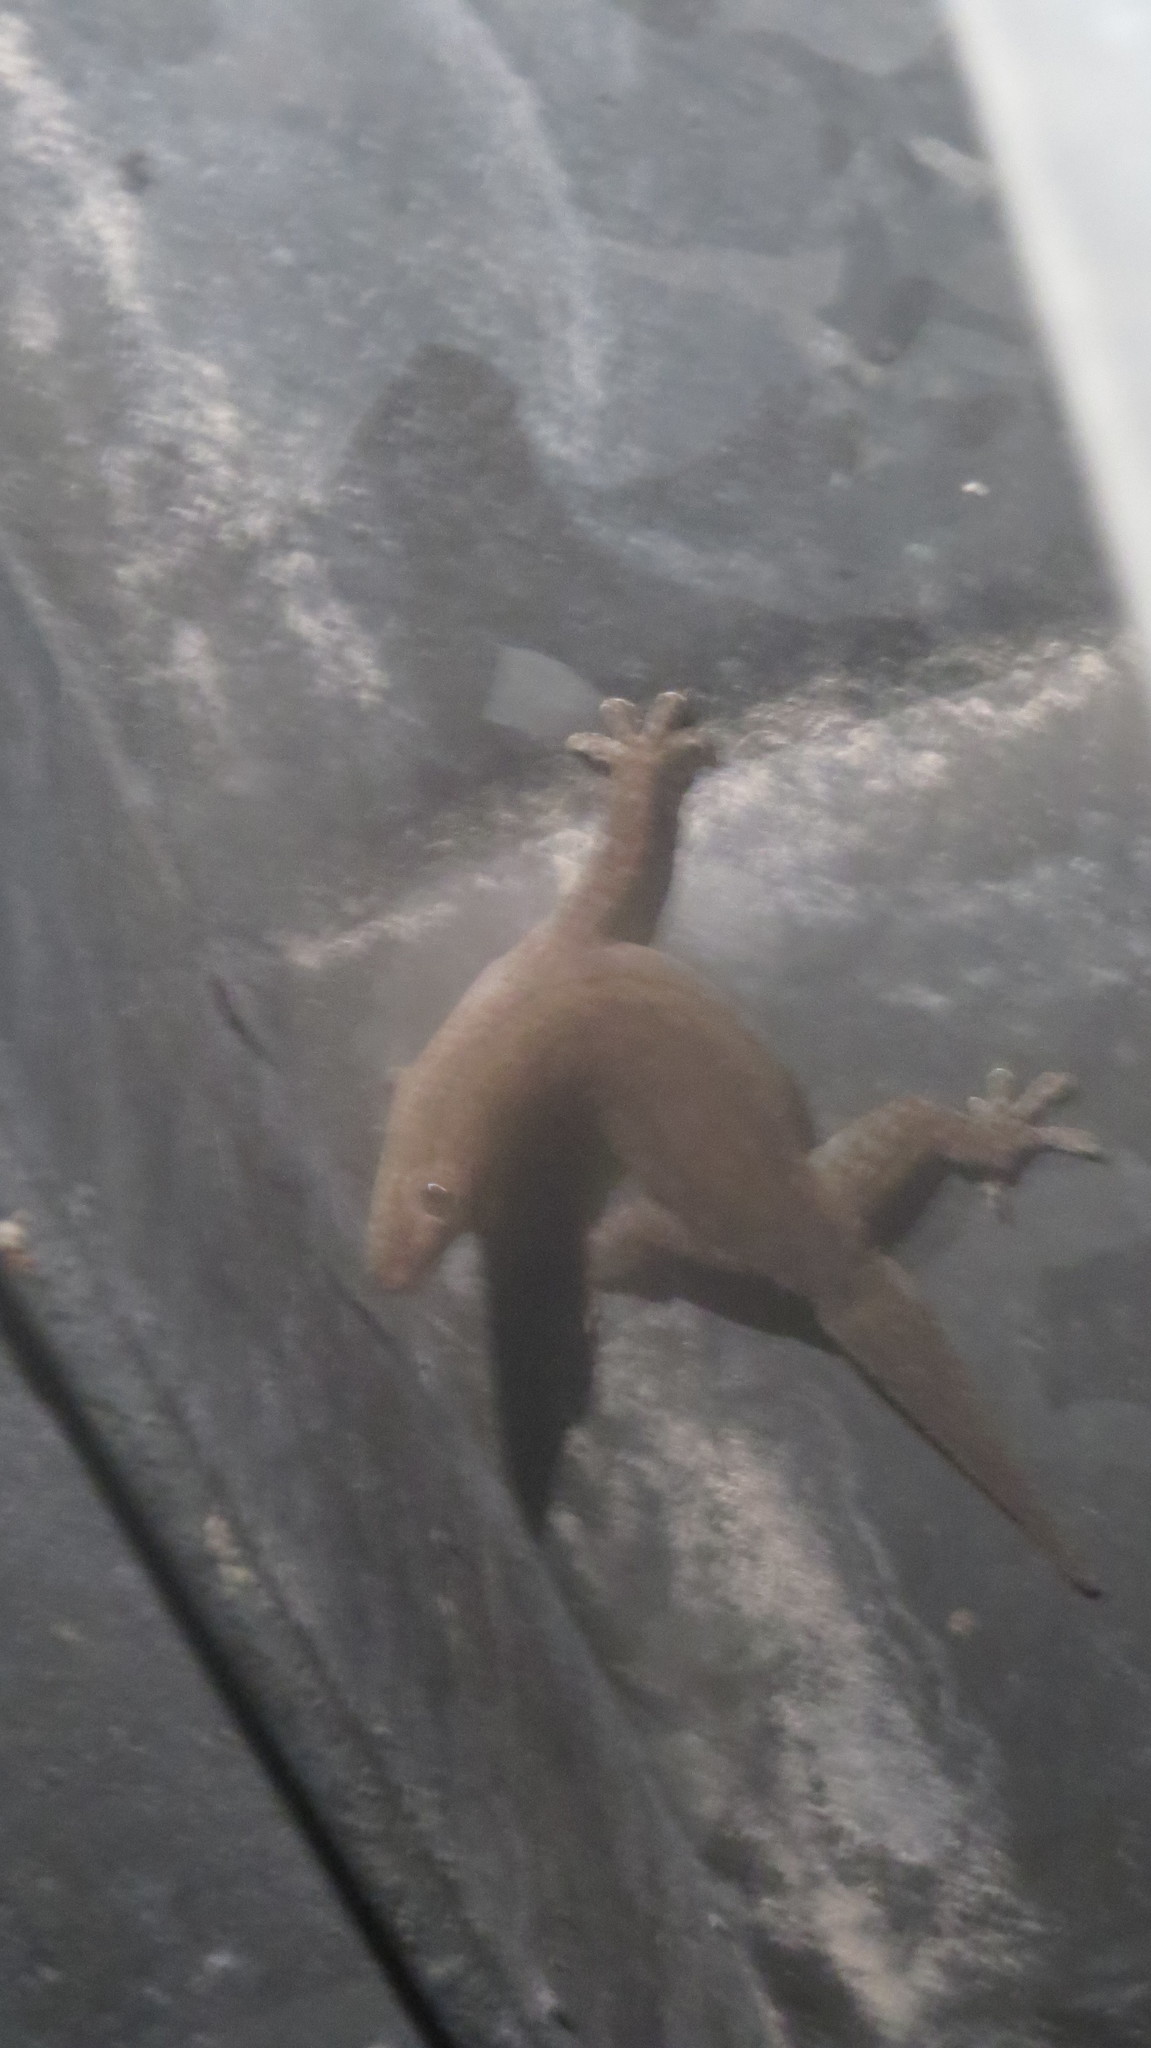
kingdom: Animalia
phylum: Chordata
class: Squamata
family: Gekkonidae
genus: Hemidactylus
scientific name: Hemidactylus frenatus
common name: Common house gecko
